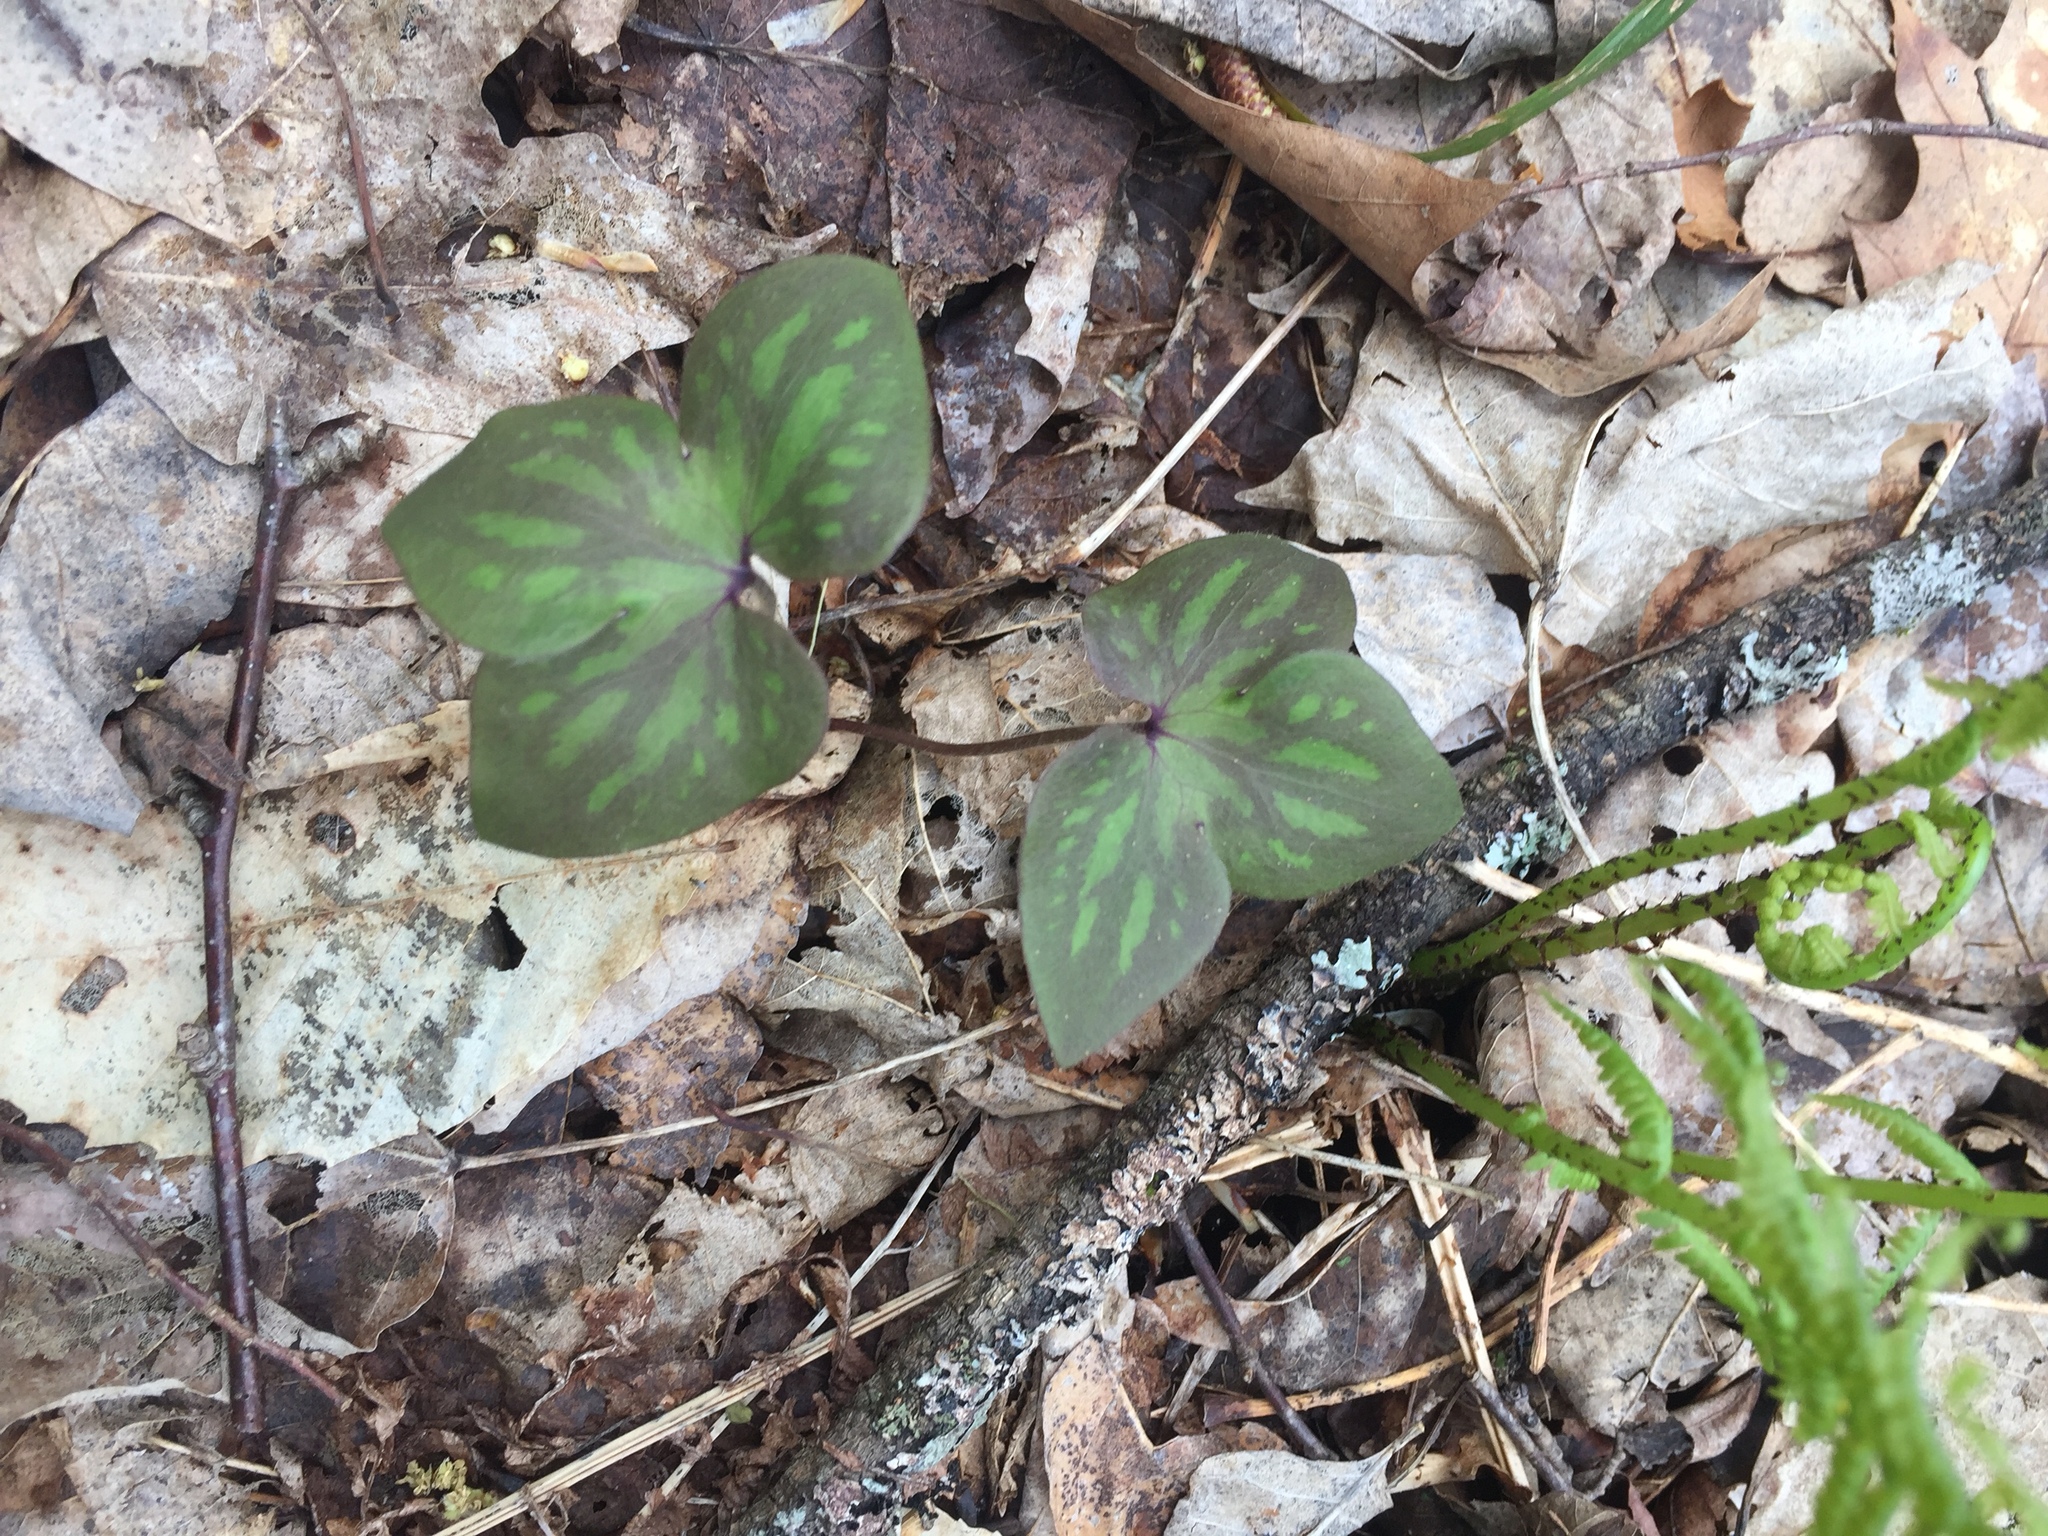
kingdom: Plantae
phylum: Tracheophyta
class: Magnoliopsida
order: Ranunculales
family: Ranunculaceae
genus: Hepatica
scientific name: Hepatica acutiloba
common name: Sharp-lobed hepatica
